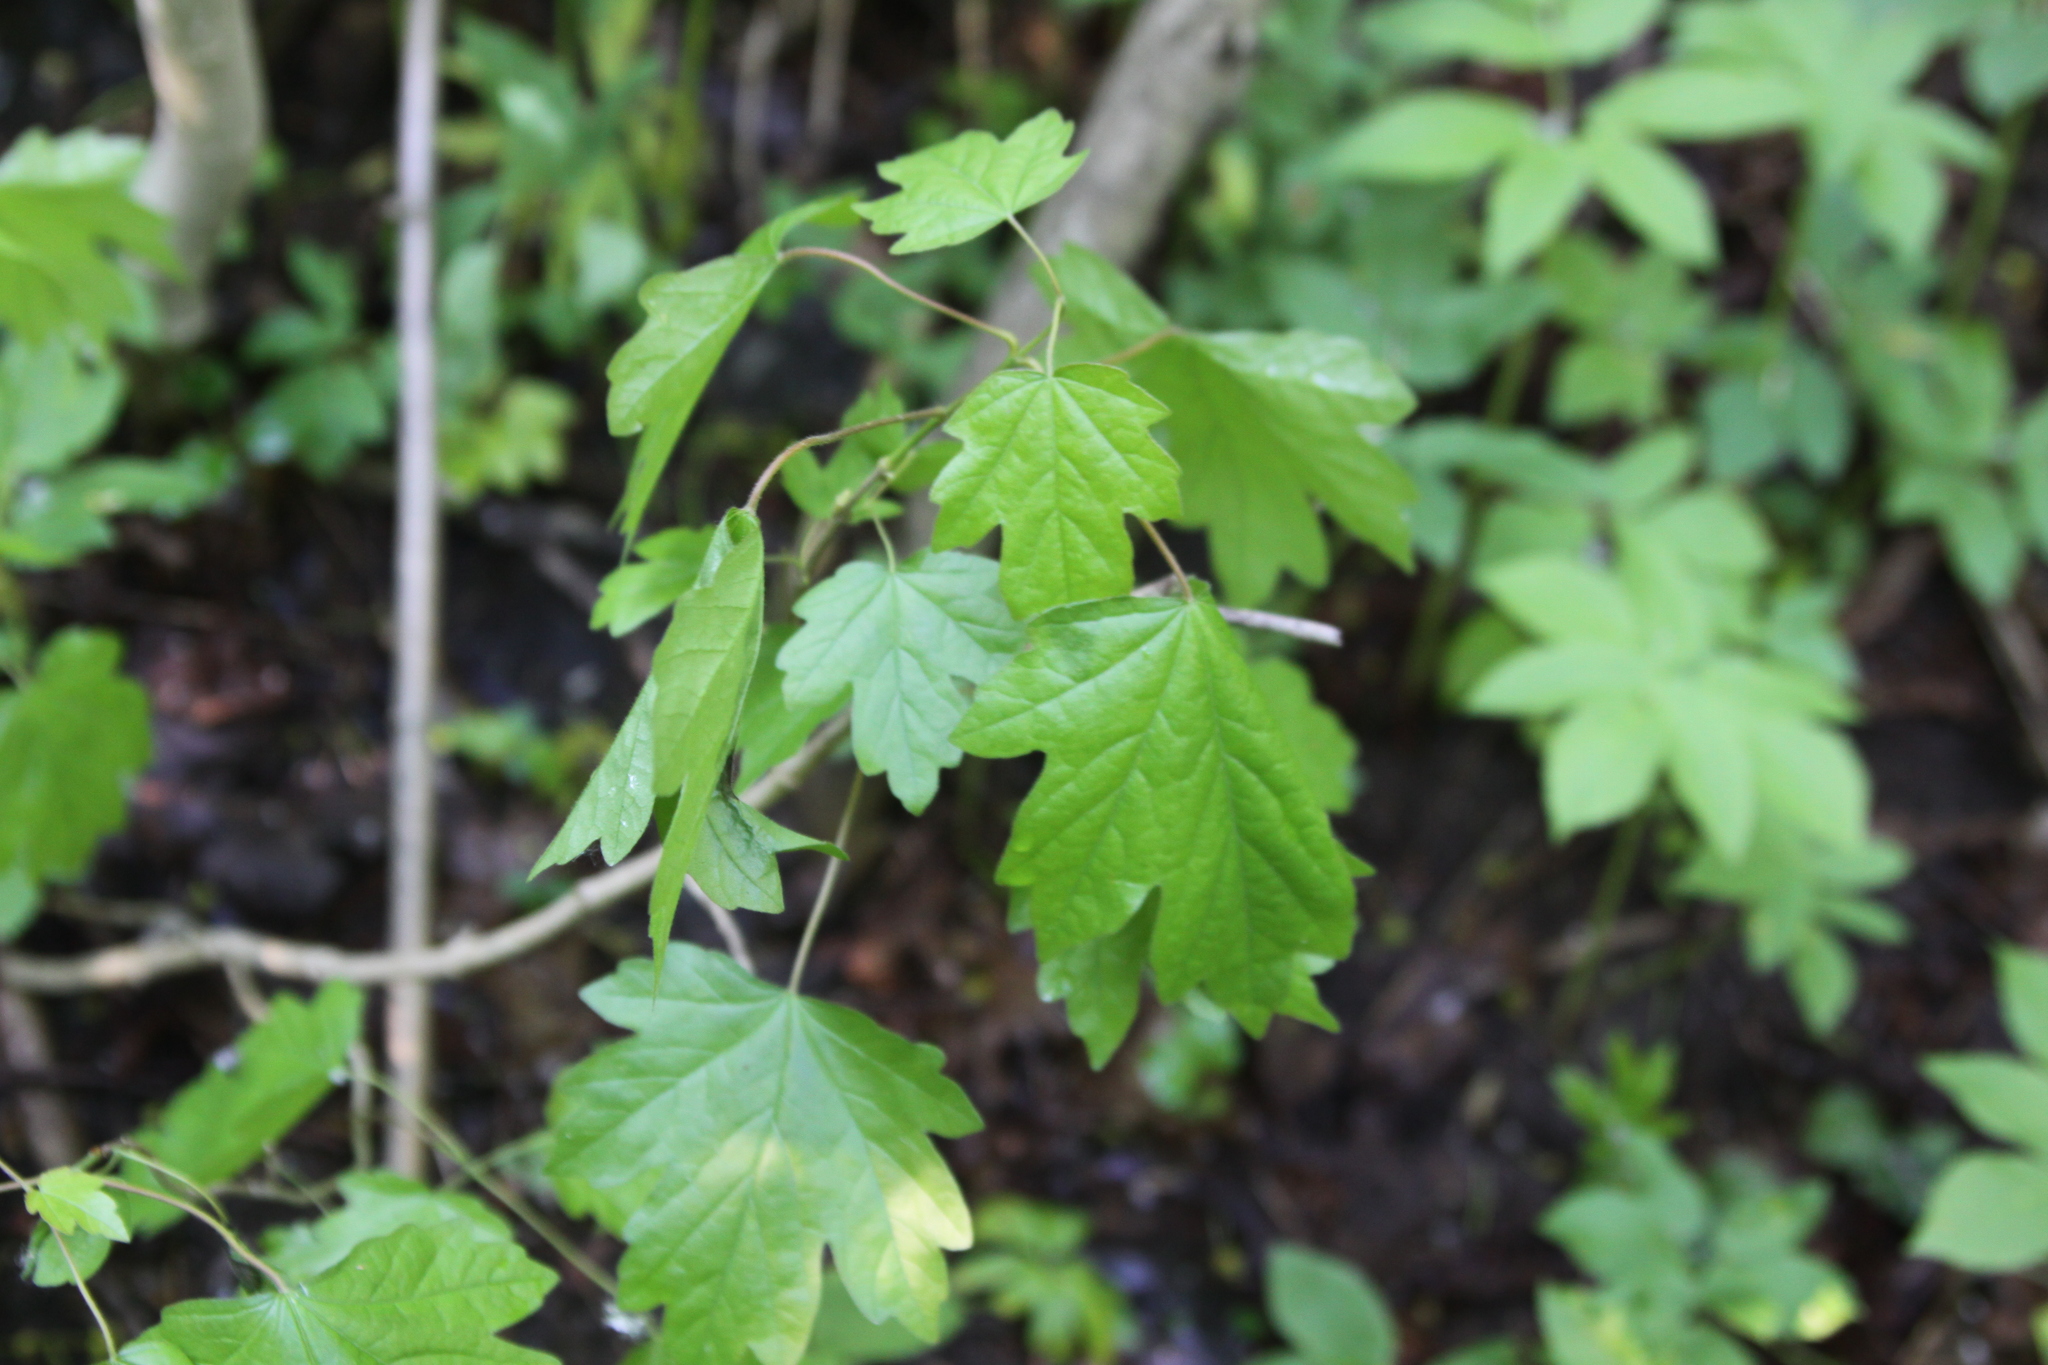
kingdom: Plantae
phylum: Tracheophyta
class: Magnoliopsida
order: Sapindales
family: Sapindaceae
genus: Acer
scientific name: Acer campestre
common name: Field maple
